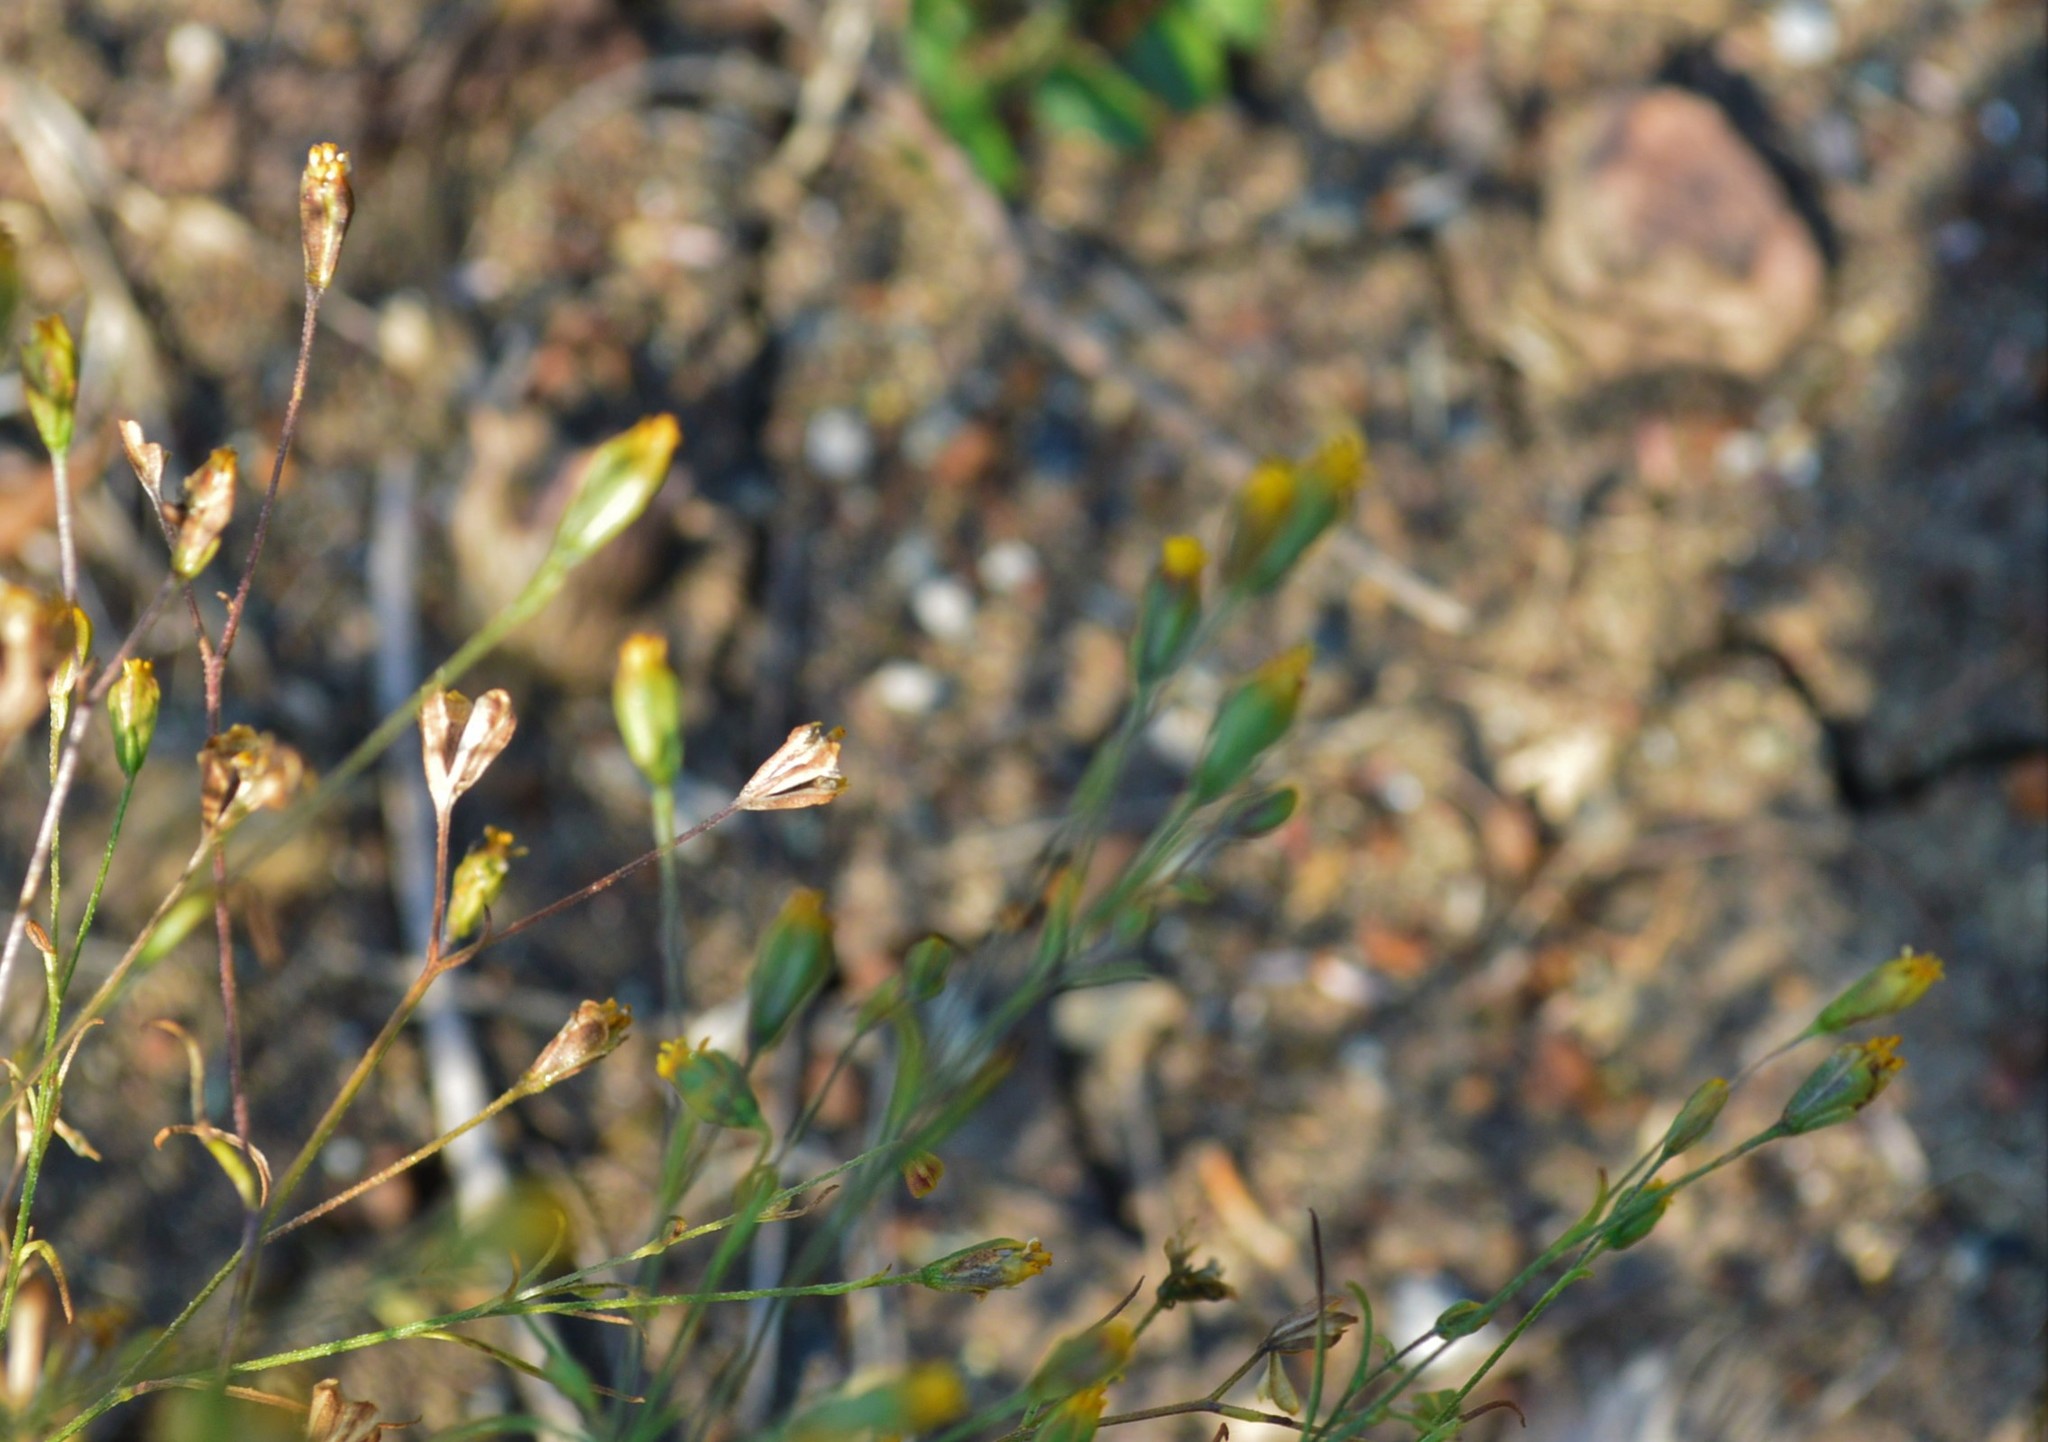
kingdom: Plantae
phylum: Tracheophyta
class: Magnoliopsida
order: Asterales
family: Asteraceae
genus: Schkuhria
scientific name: Schkuhria pinnata
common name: Dwarf marigold
